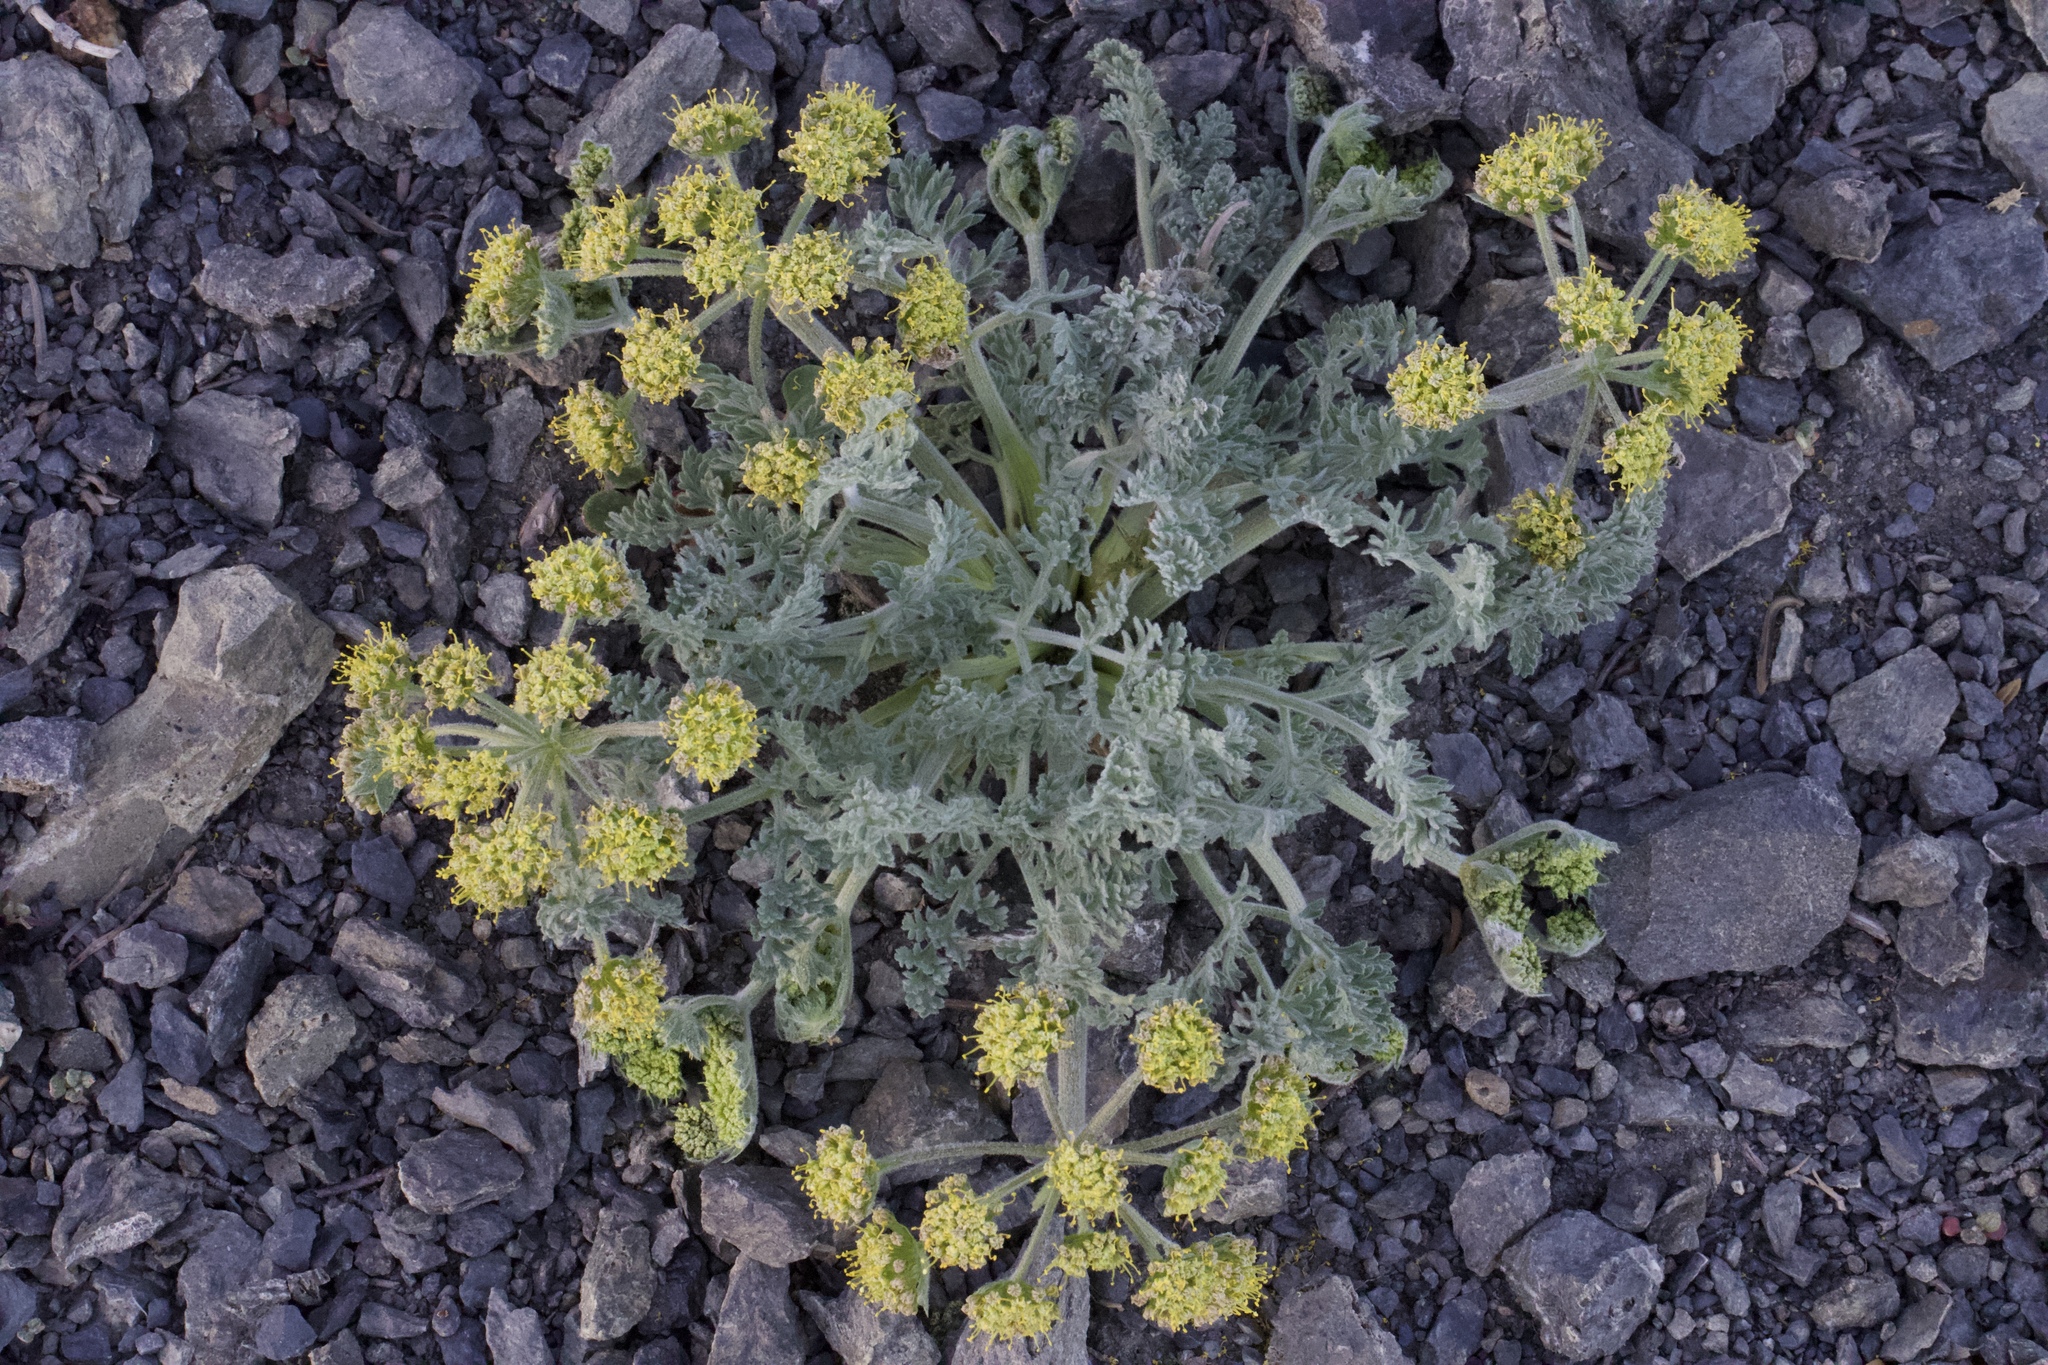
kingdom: Plantae
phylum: Tracheophyta
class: Magnoliopsida
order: Apiales
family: Apiaceae
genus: Lomatium
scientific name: Lomatium macrocarpum
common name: Big-seed biscuitroot
